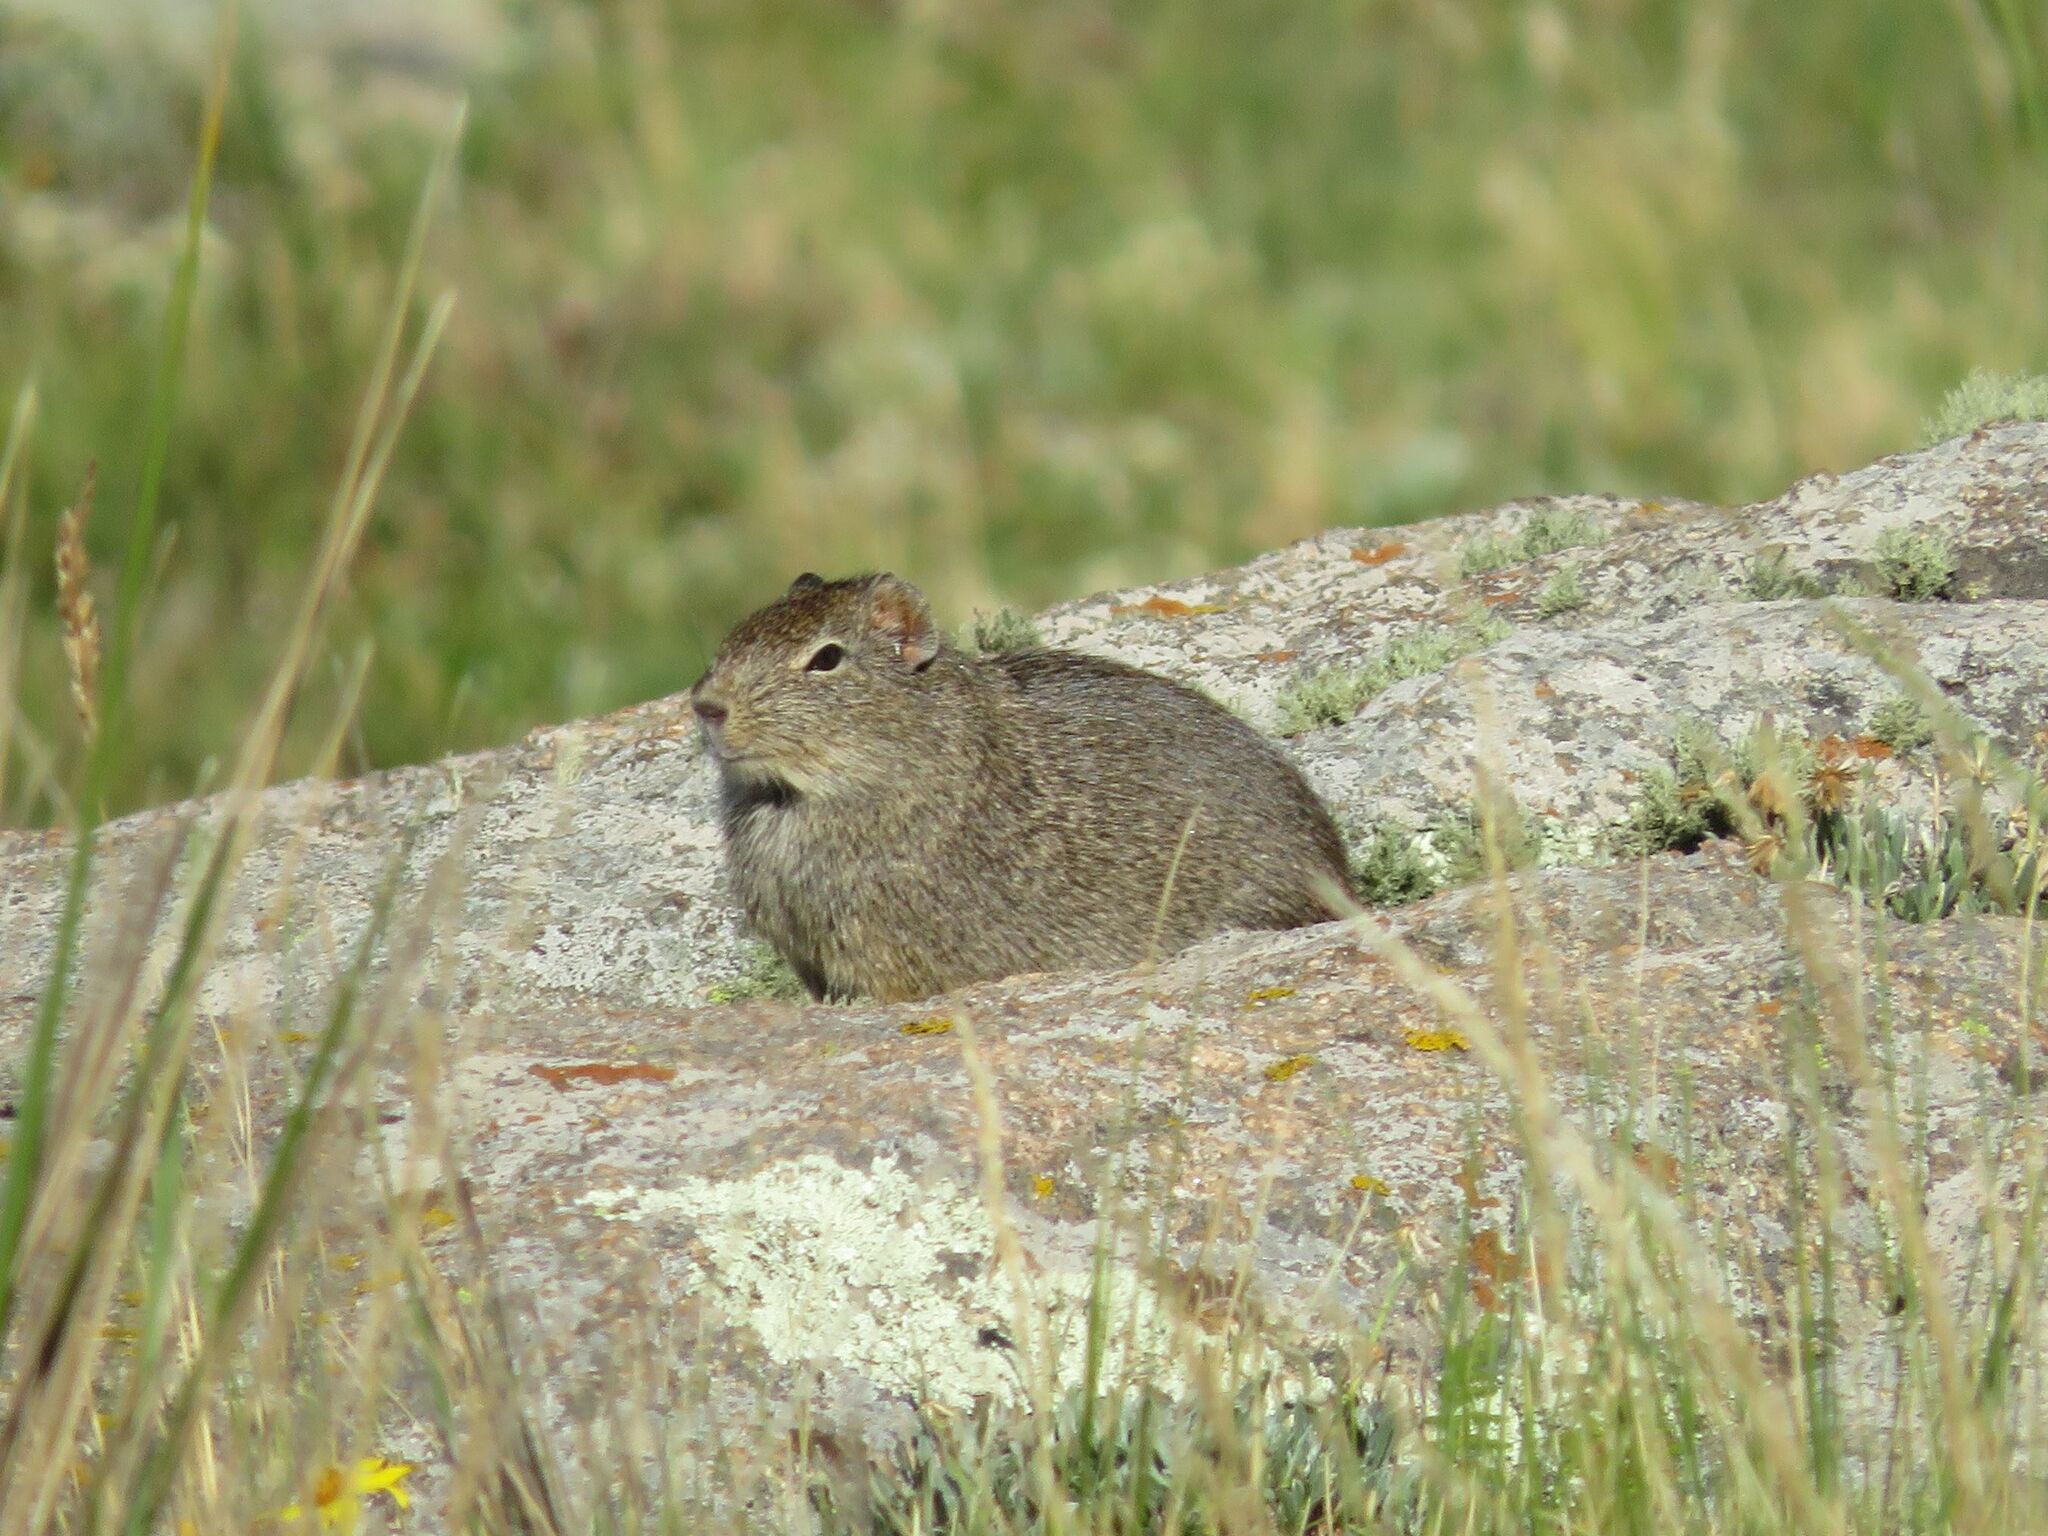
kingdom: Animalia
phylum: Chordata
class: Mammalia
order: Rodentia
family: Caviidae
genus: Galea
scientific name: Galea musteloides
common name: Common yellow-toothed cavy
